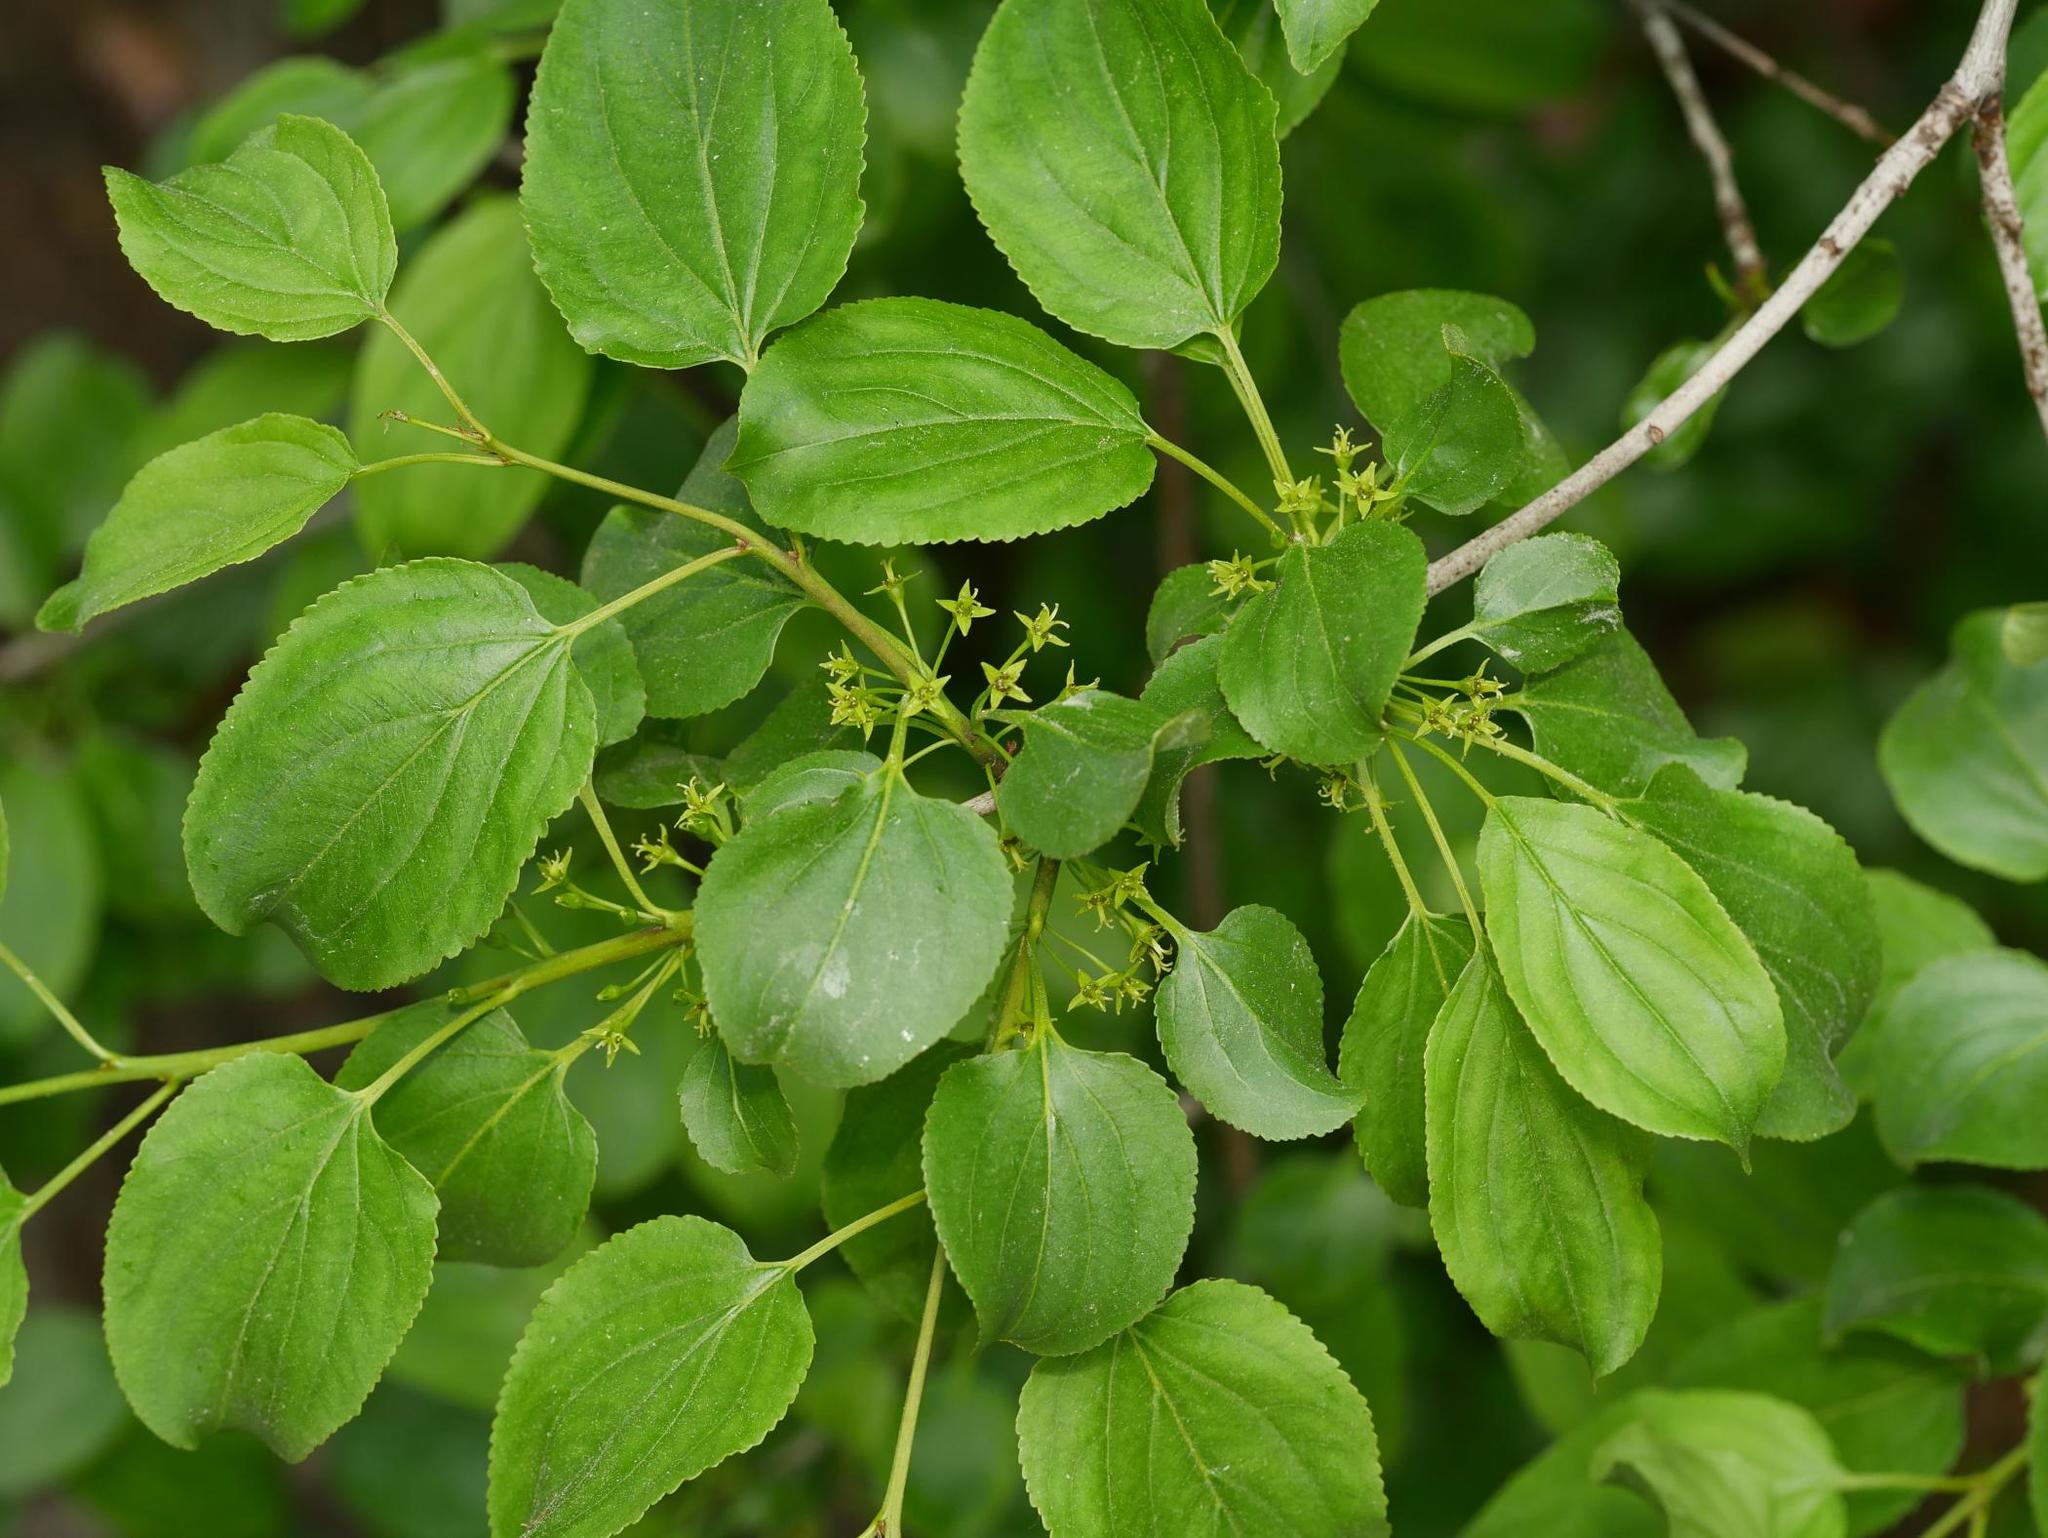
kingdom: Plantae
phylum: Tracheophyta
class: Magnoliopsida
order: Rosales
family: Rhamnaceae
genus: Rhamnus
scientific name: Rhamnus cathartica
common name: Common buckthorn
